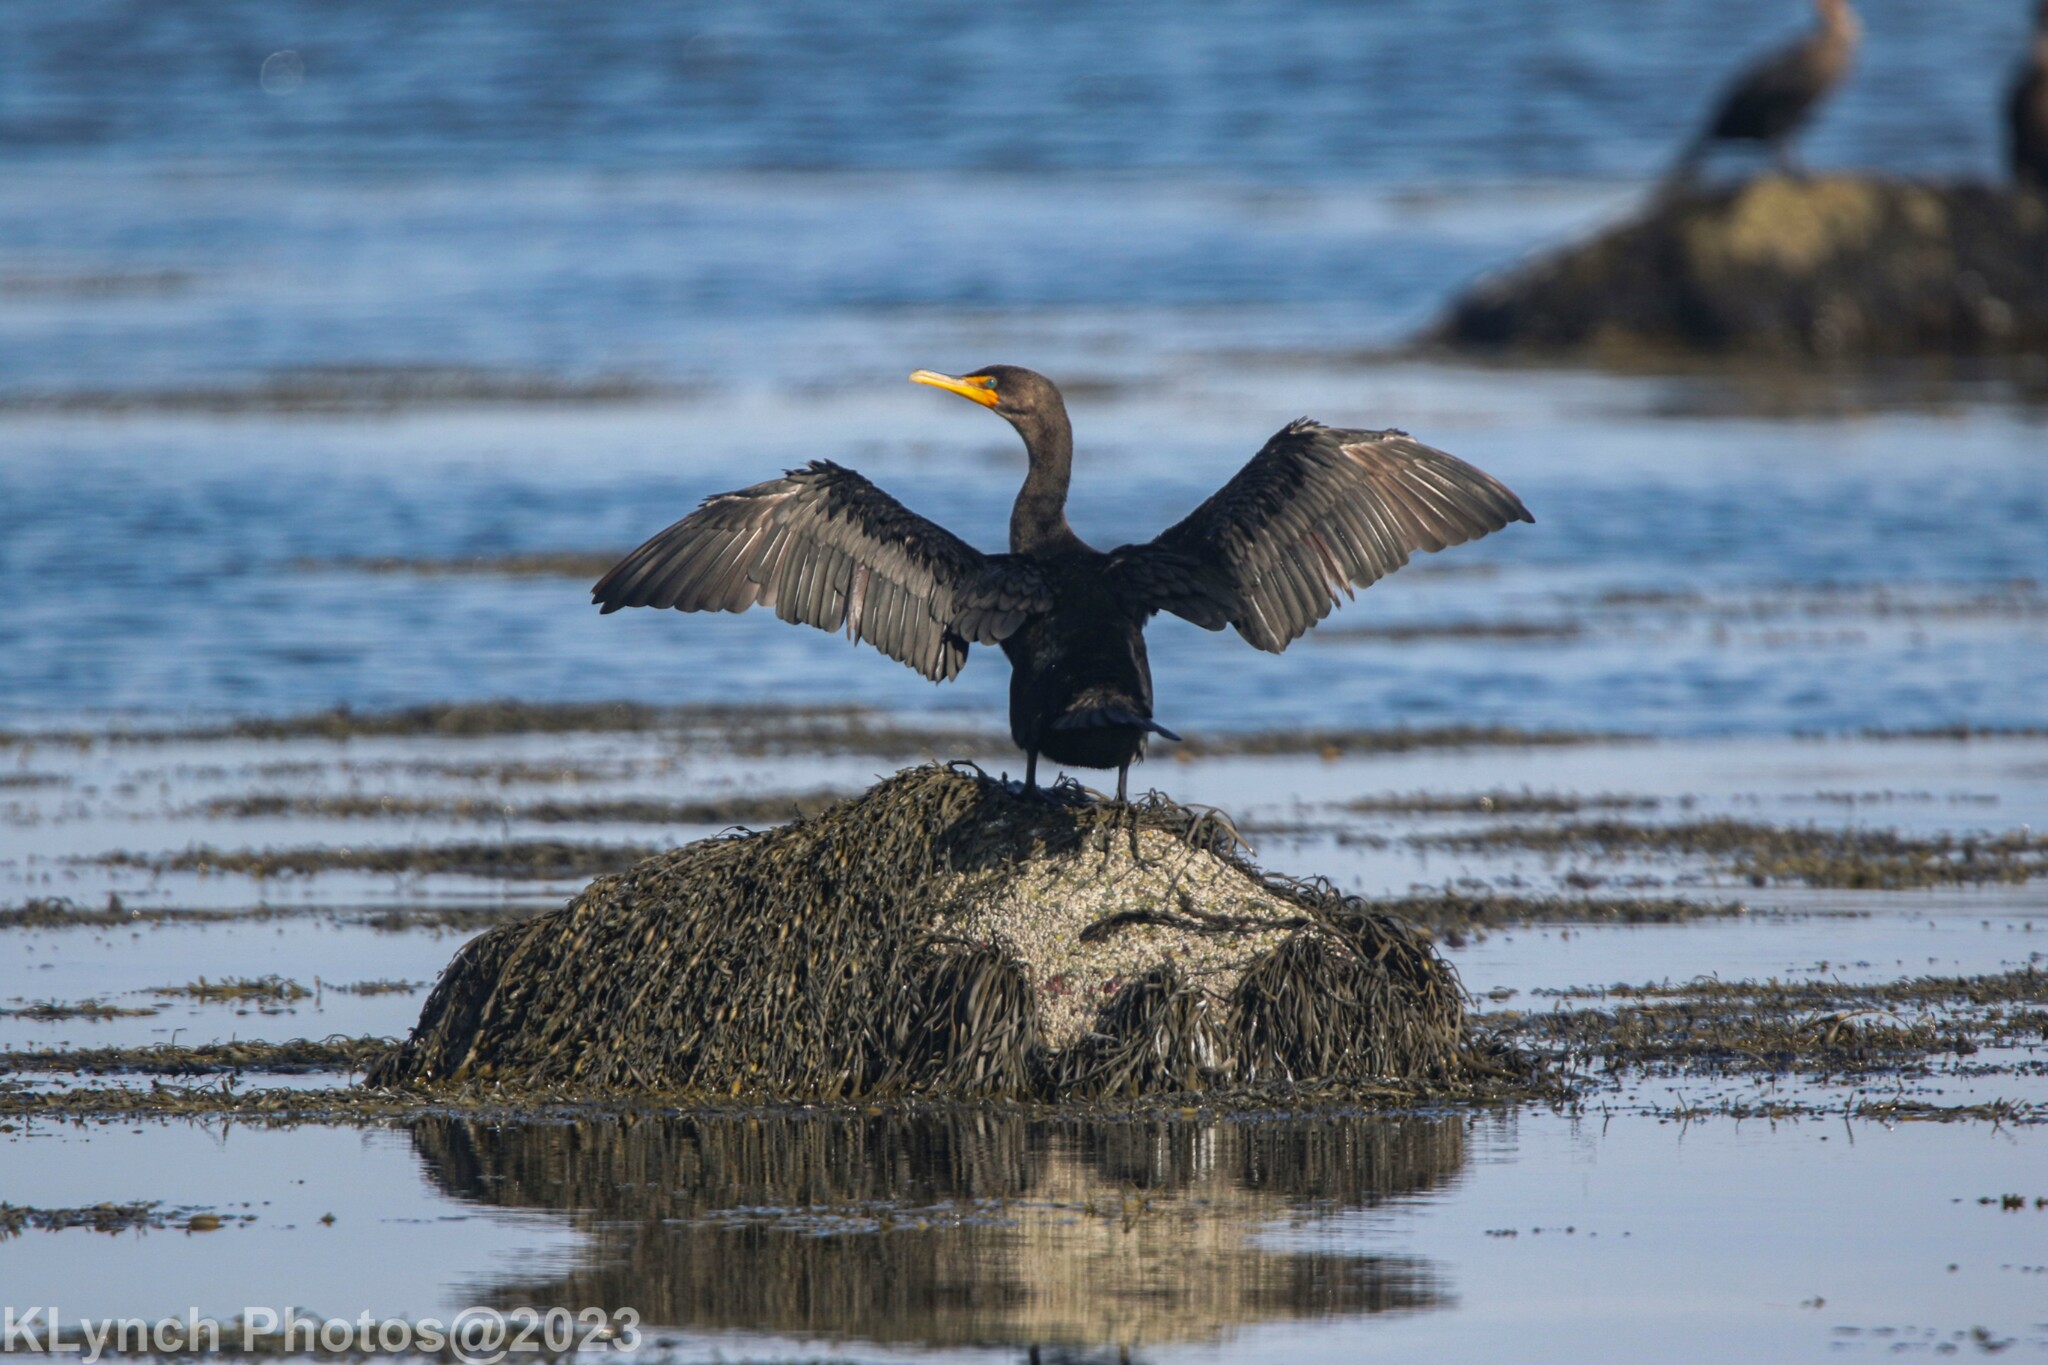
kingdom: Animalia
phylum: Chordata
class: Aves
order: Suliformes
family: Phalacrocoracidae
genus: Phalacrocorax
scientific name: Phalacrocorax auritus
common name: Double-crested cormorant
